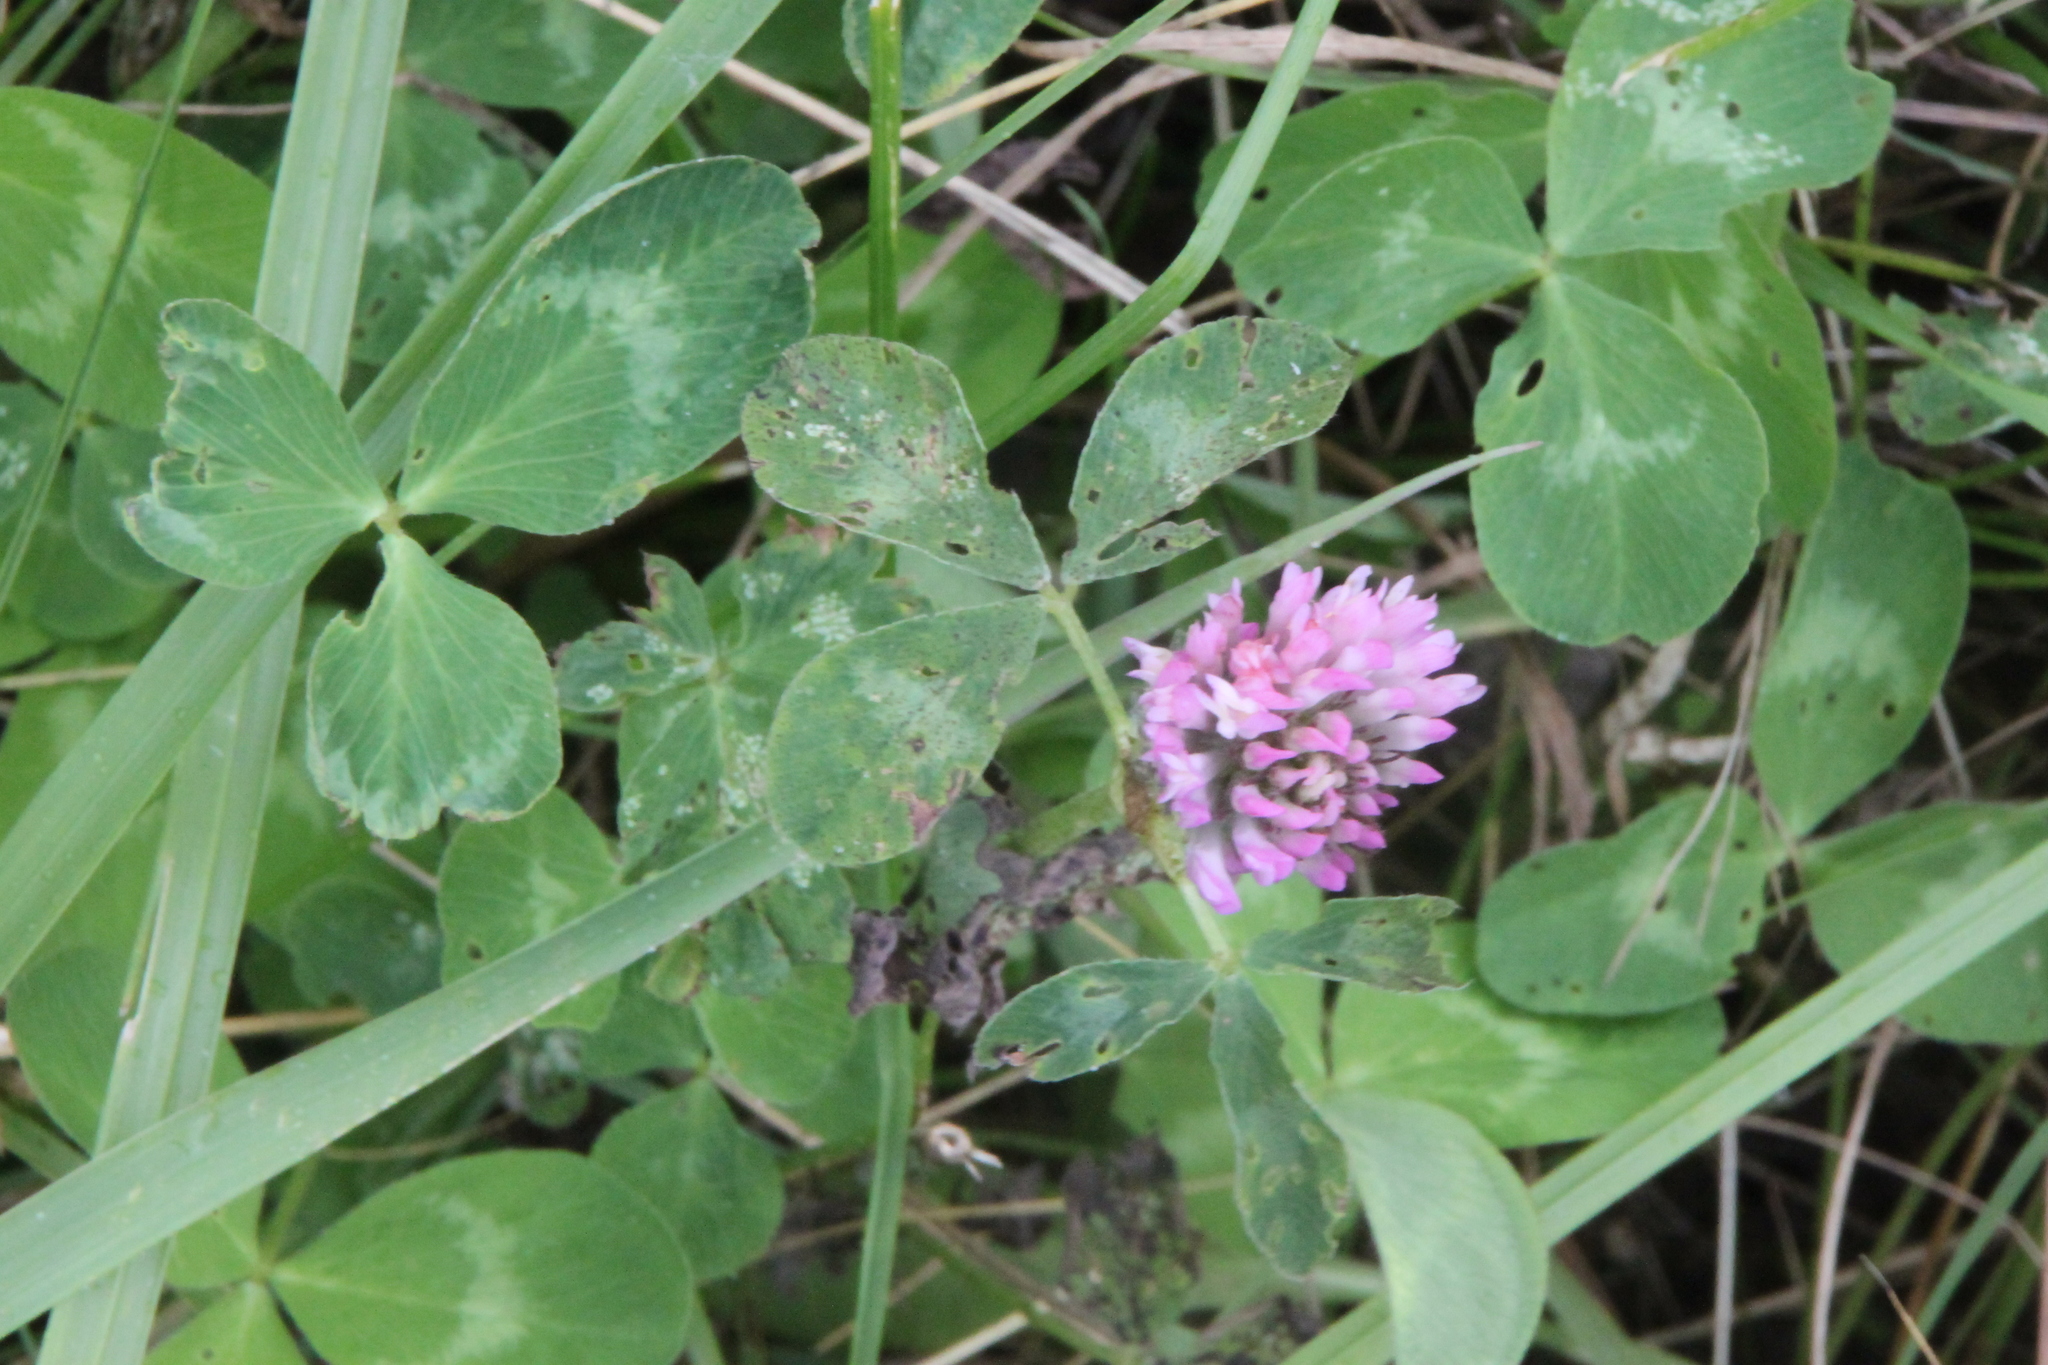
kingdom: Plantae
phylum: Tracheophyta
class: Magnoliopsida
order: Fabales
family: Fabaceae
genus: Trifolium
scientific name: Trifolium pratense
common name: Red clover
